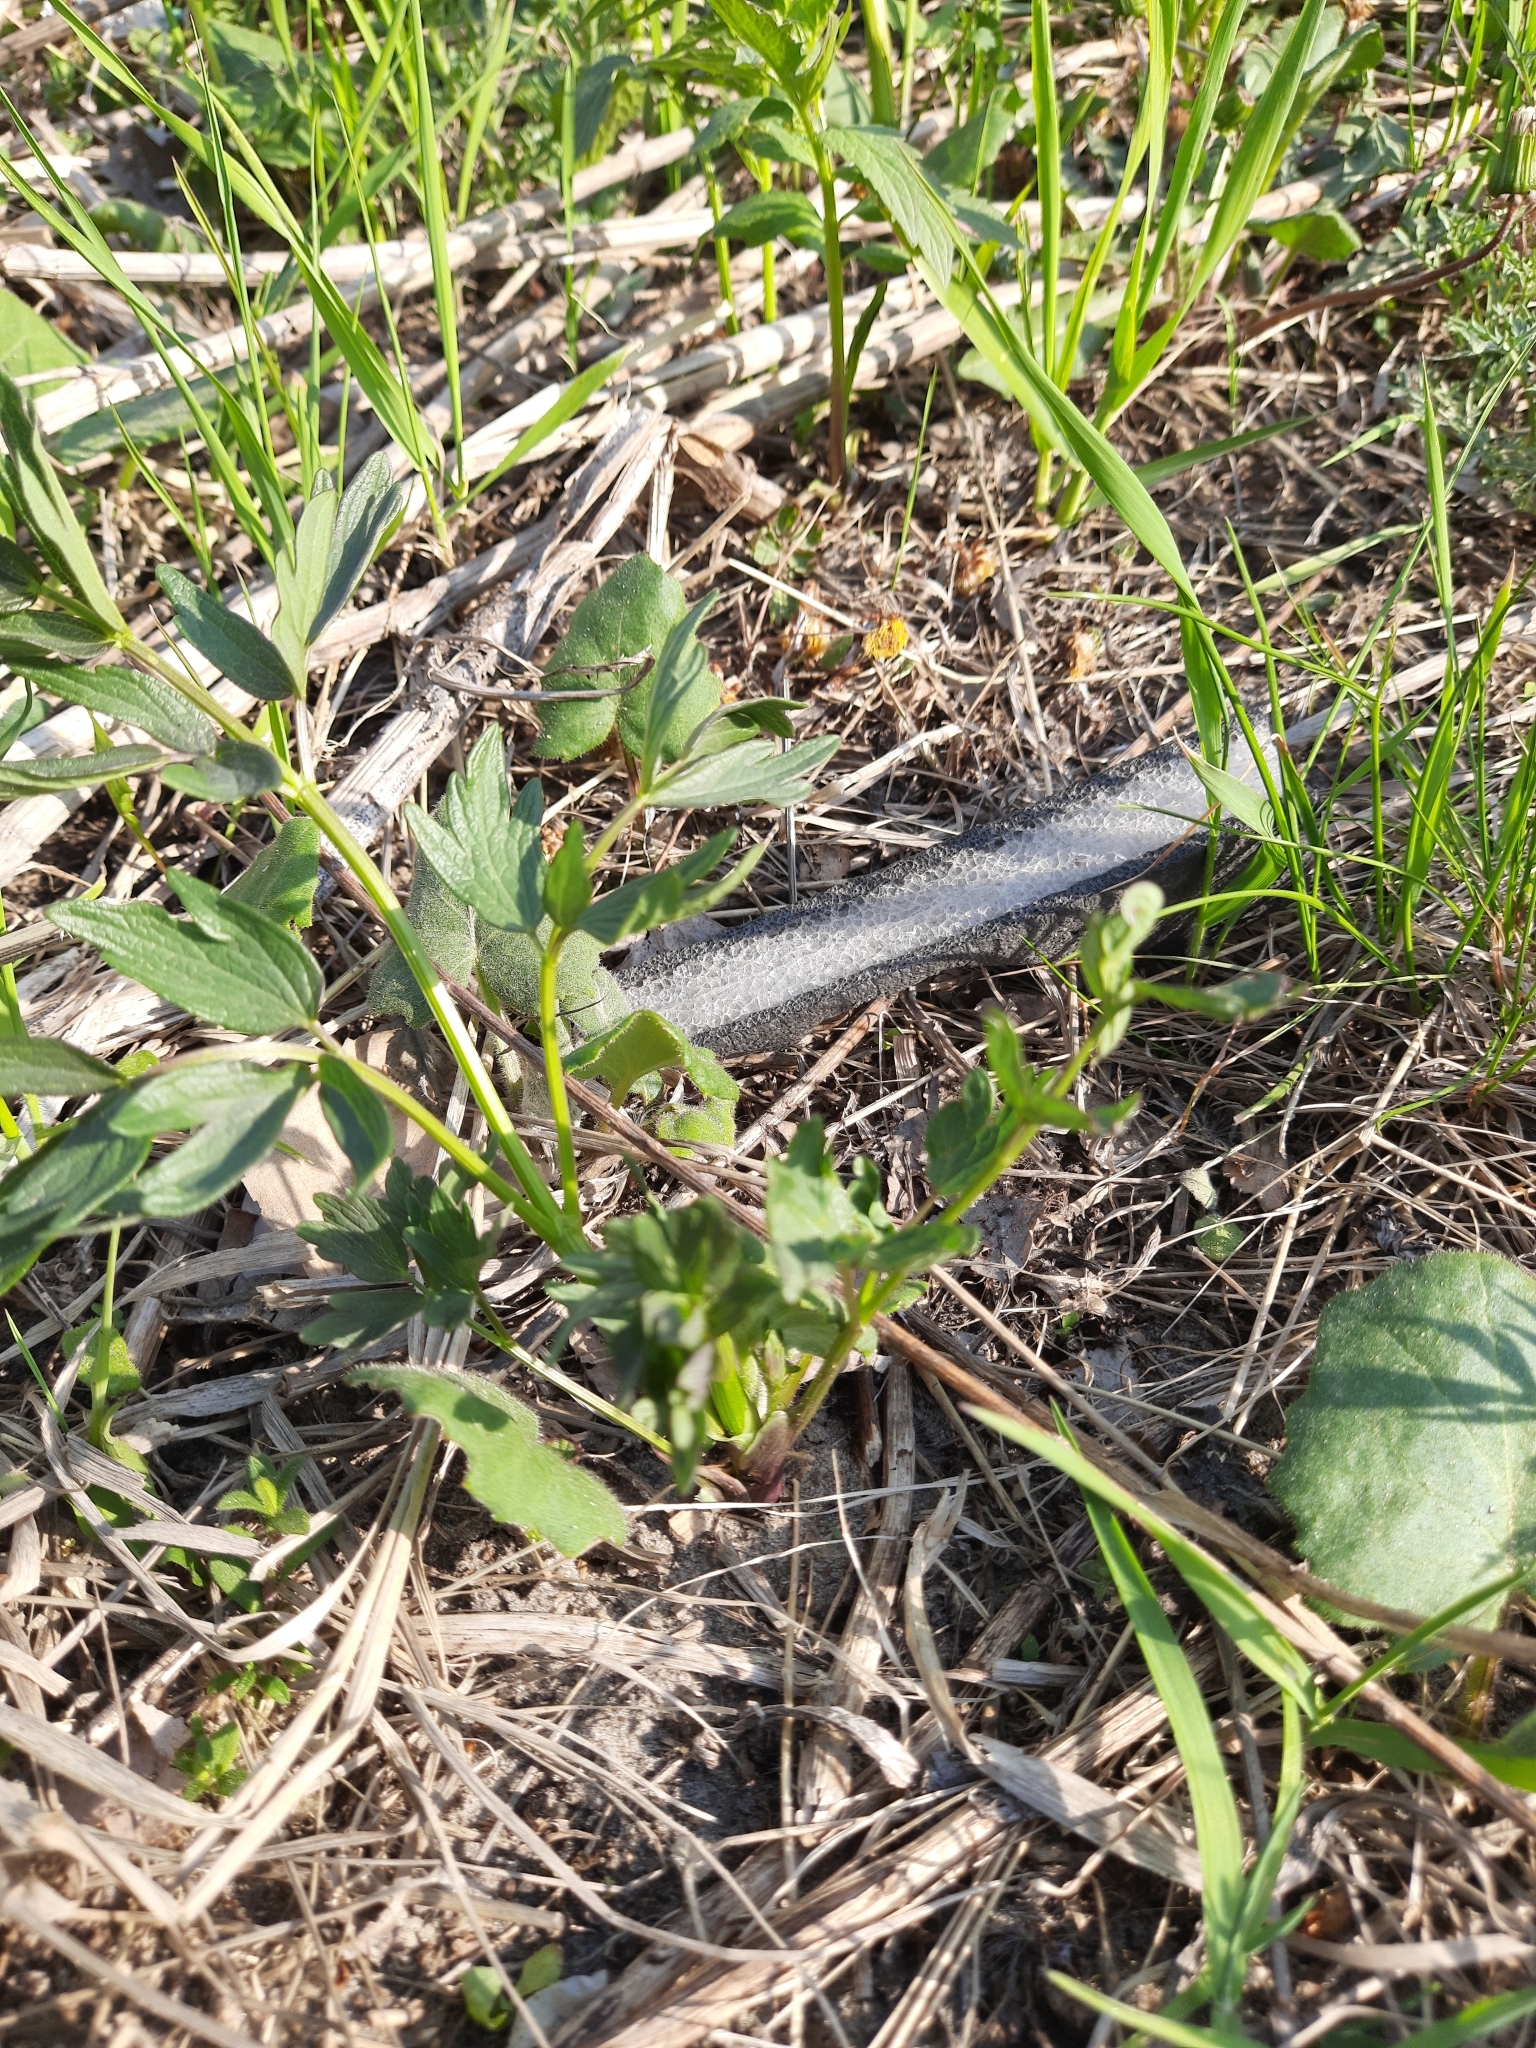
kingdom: Plantae
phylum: Tracheophyta
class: Magnoliopsida
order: Dipsacales
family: Caprifoliaceae
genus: Valeriana
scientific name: Valeriana wolgensis
